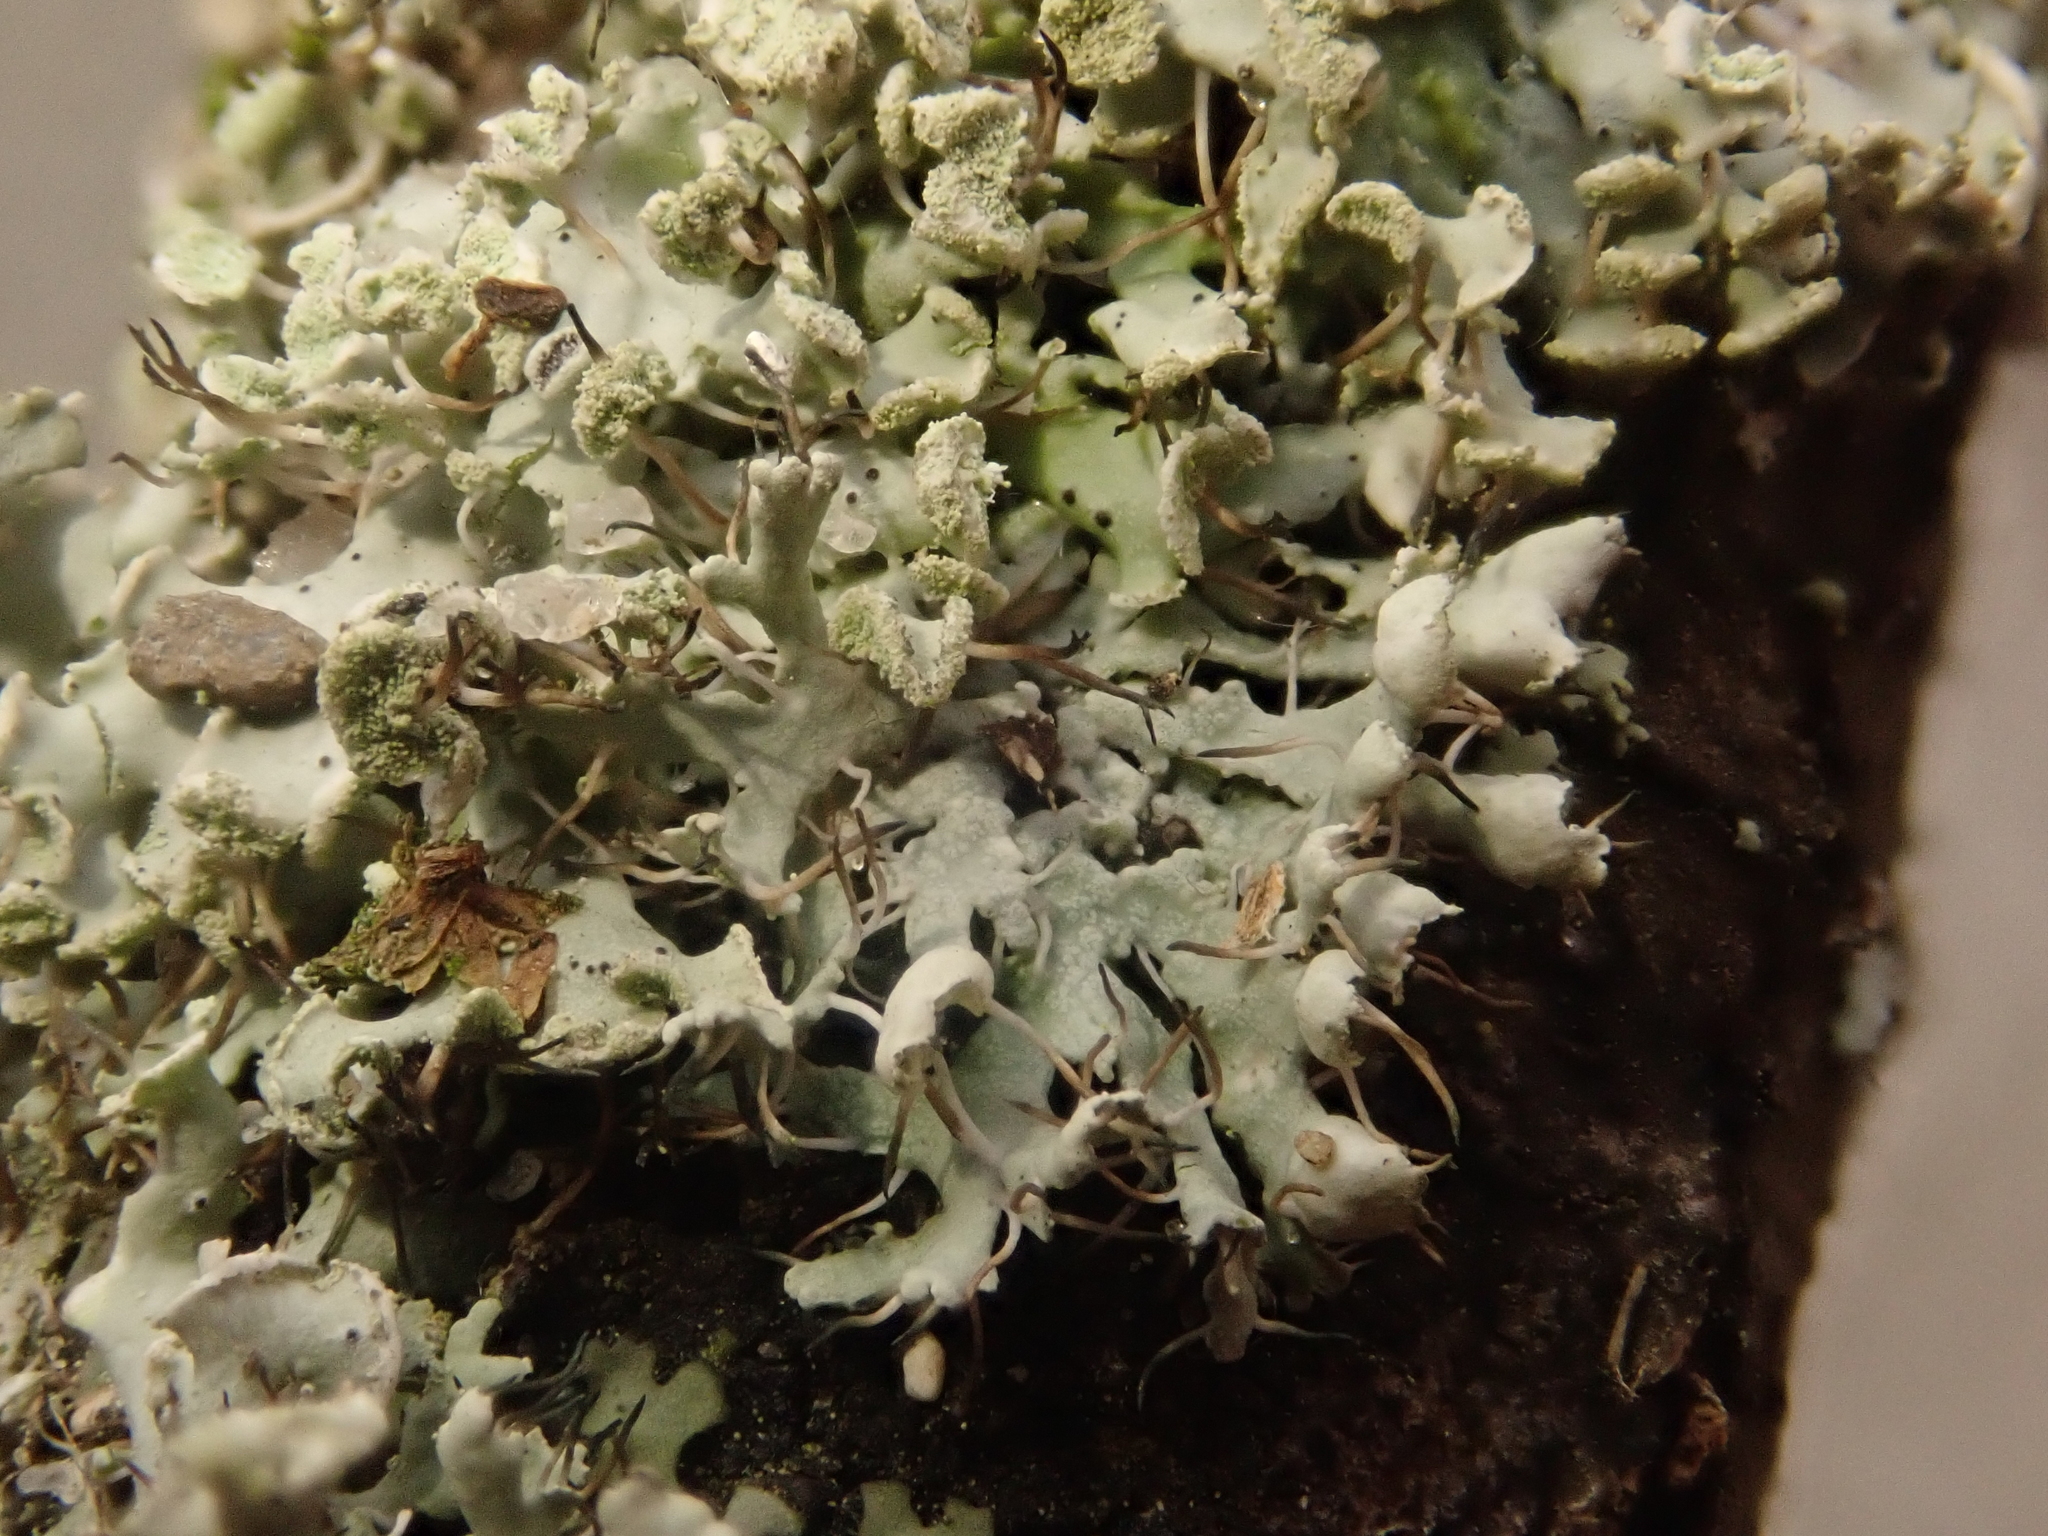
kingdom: Fungi
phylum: Ascomycota
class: Lecanoromycetes
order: Caliciales
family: Physciaceae
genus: Physcia
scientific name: Physcia adscendens
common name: Hooded rosette lichen
